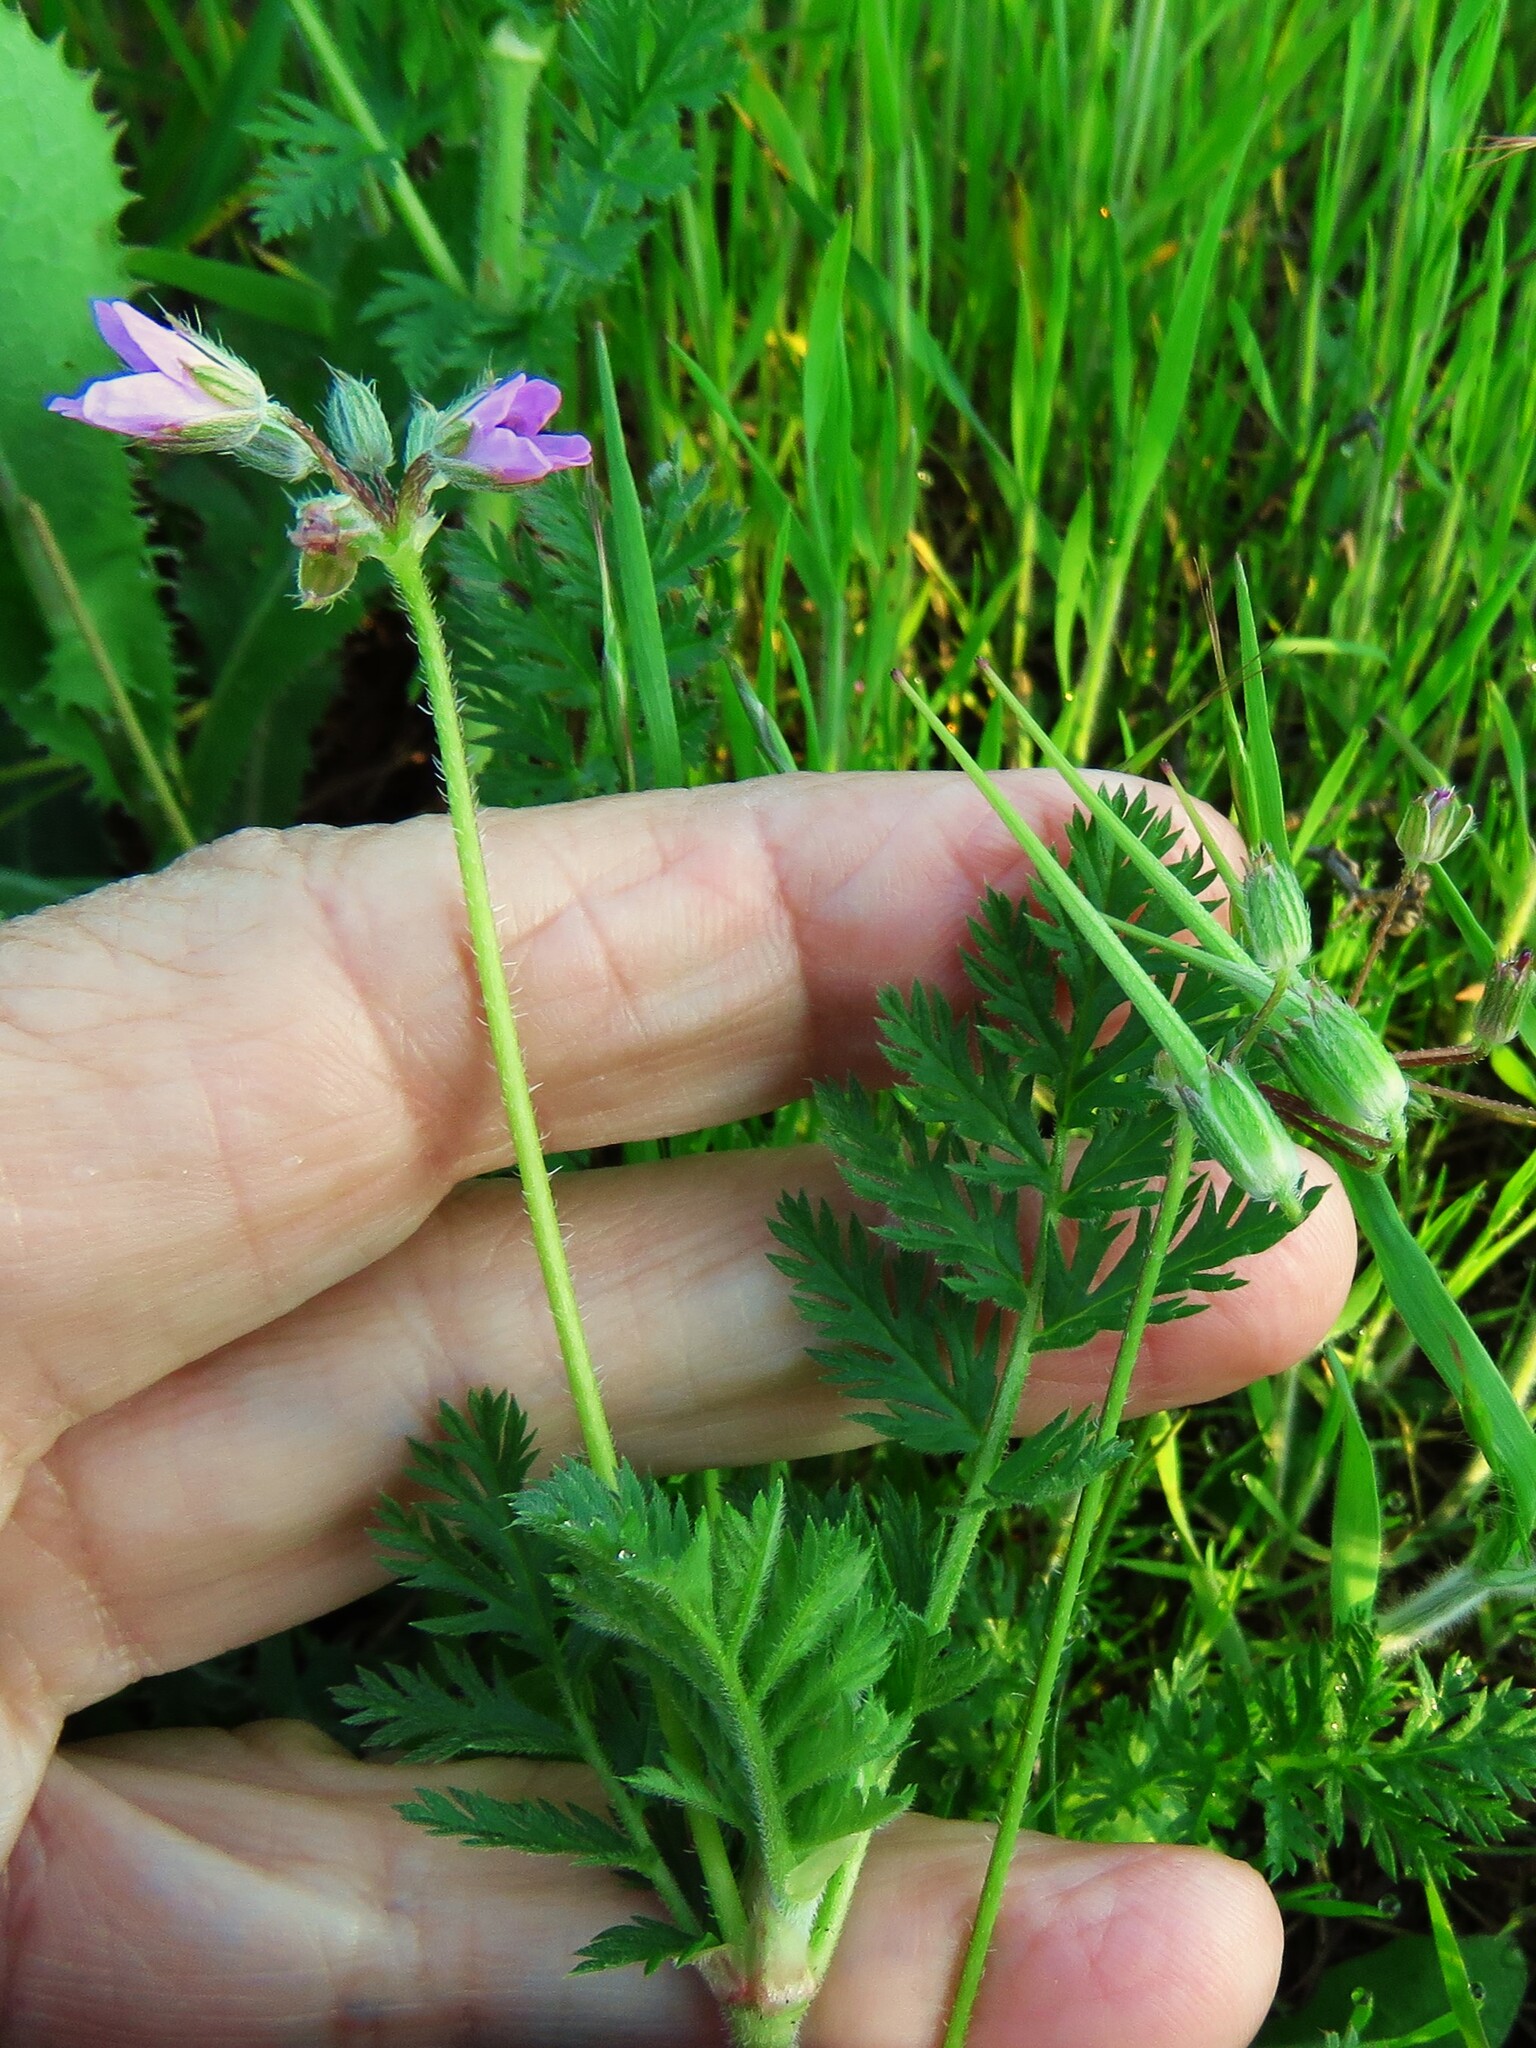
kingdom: Plantae
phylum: Tracheophyta
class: Magnoliopsida
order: Geraniales
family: Geraniaceae
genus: Erodium
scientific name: Erodium cicutarium
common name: Common stork's-bill
